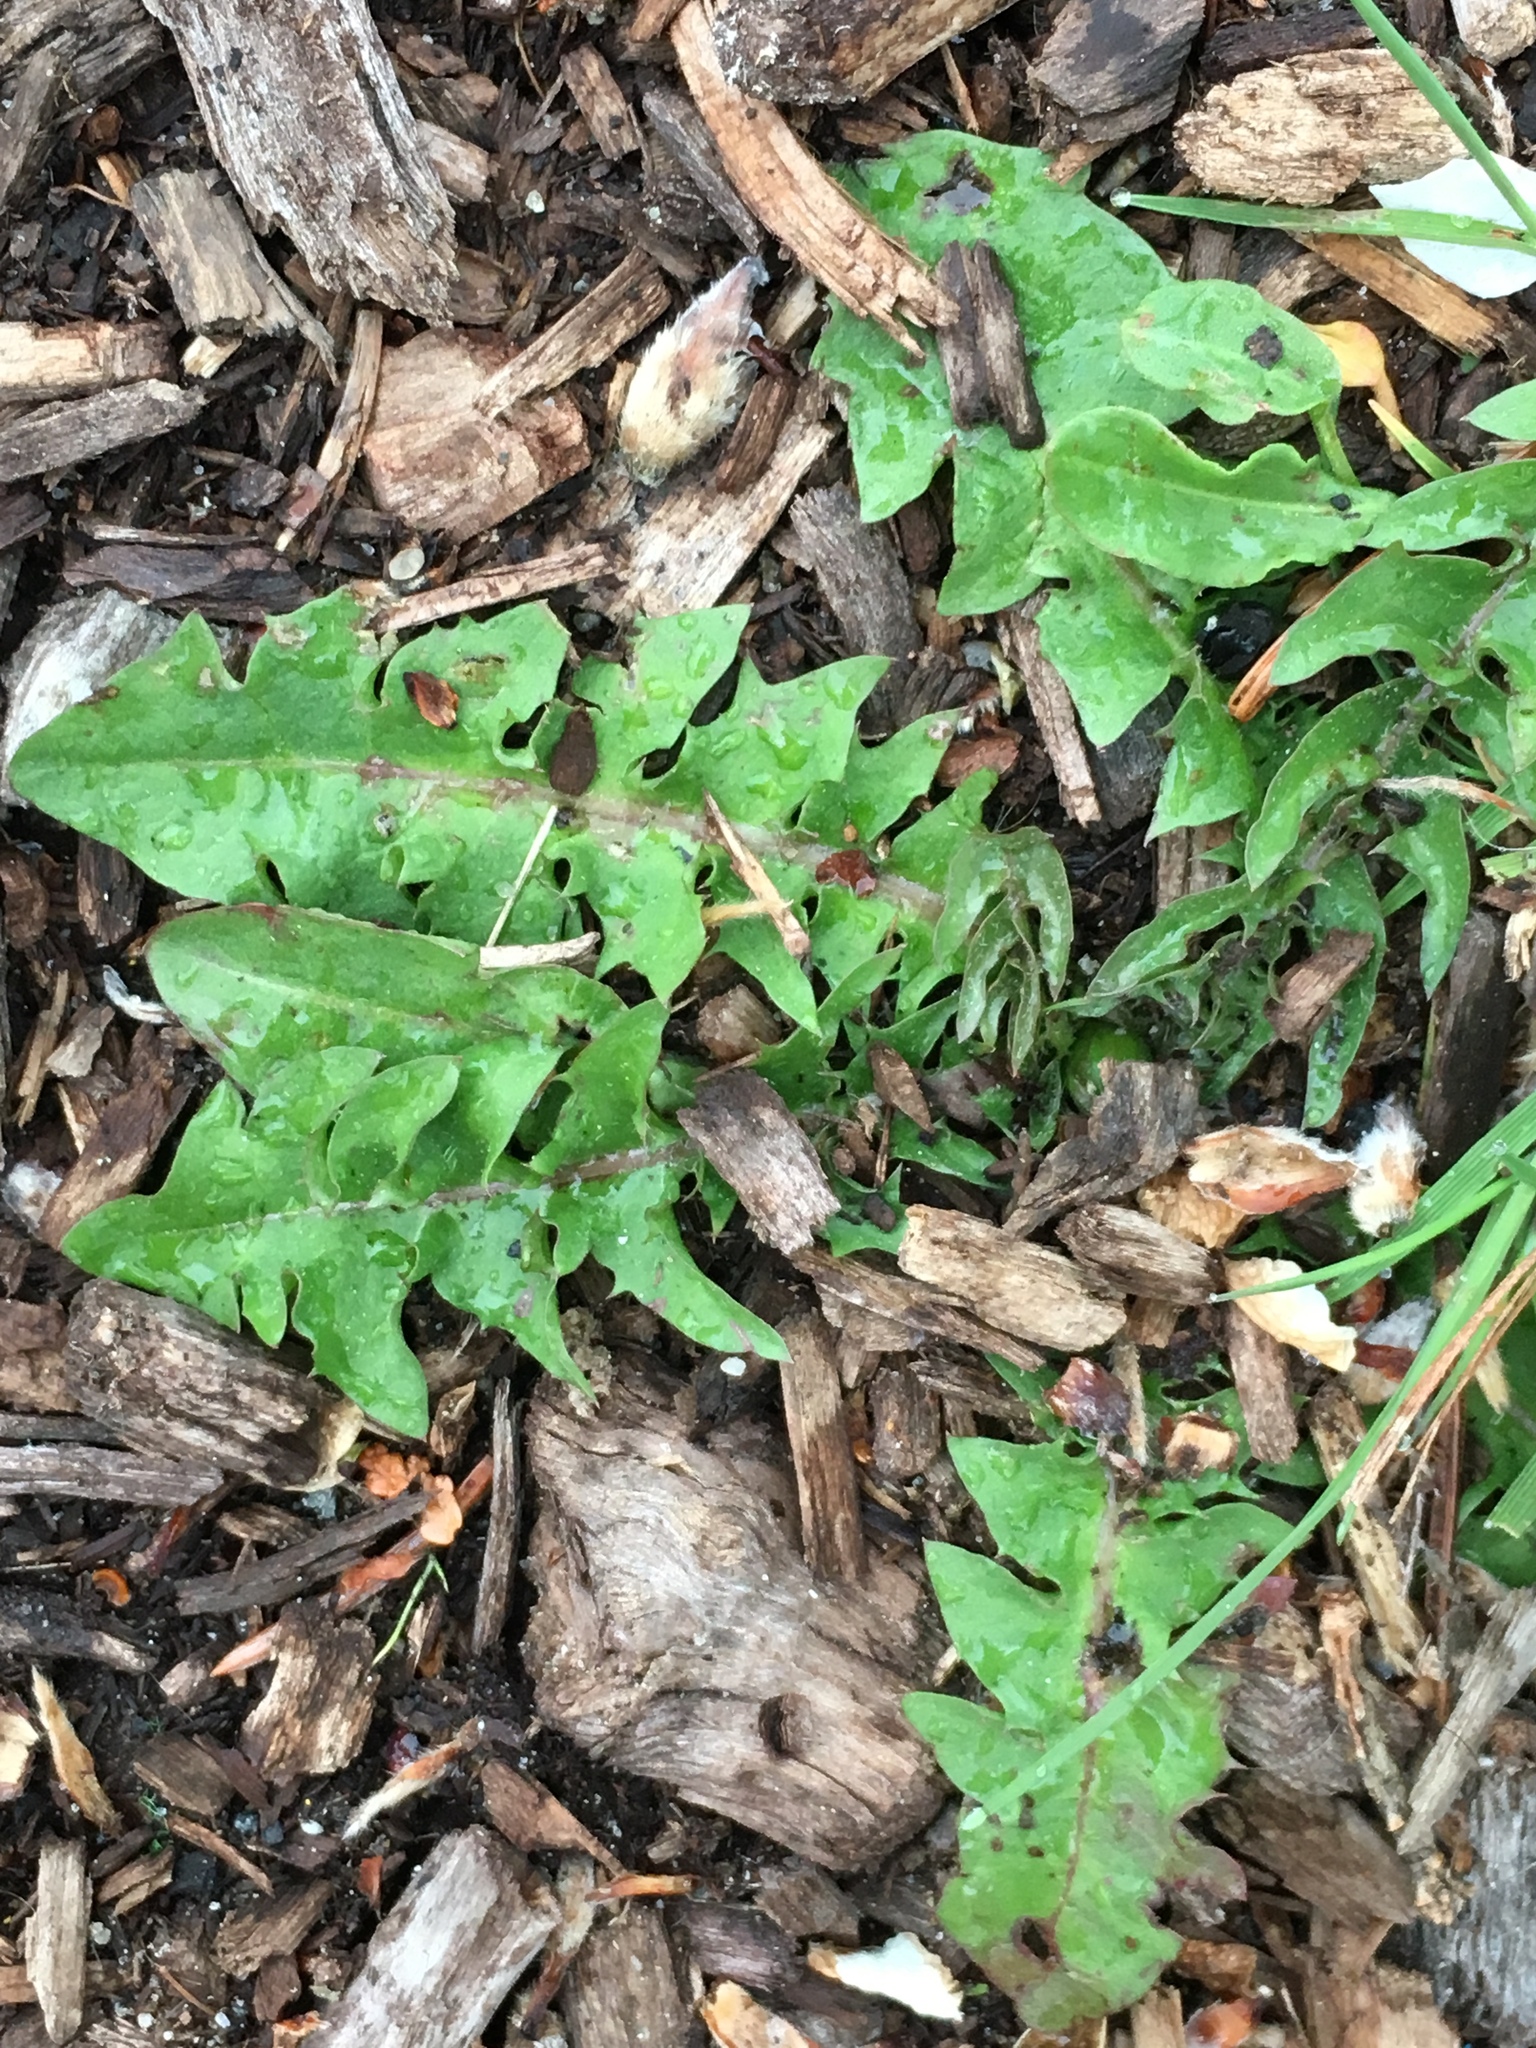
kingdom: Plantae
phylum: Tracheophyta
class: Magnoliopsida
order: Asterales
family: Asteraceae
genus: Taraxacum
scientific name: Taraxacum officinale
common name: Common dandelion
